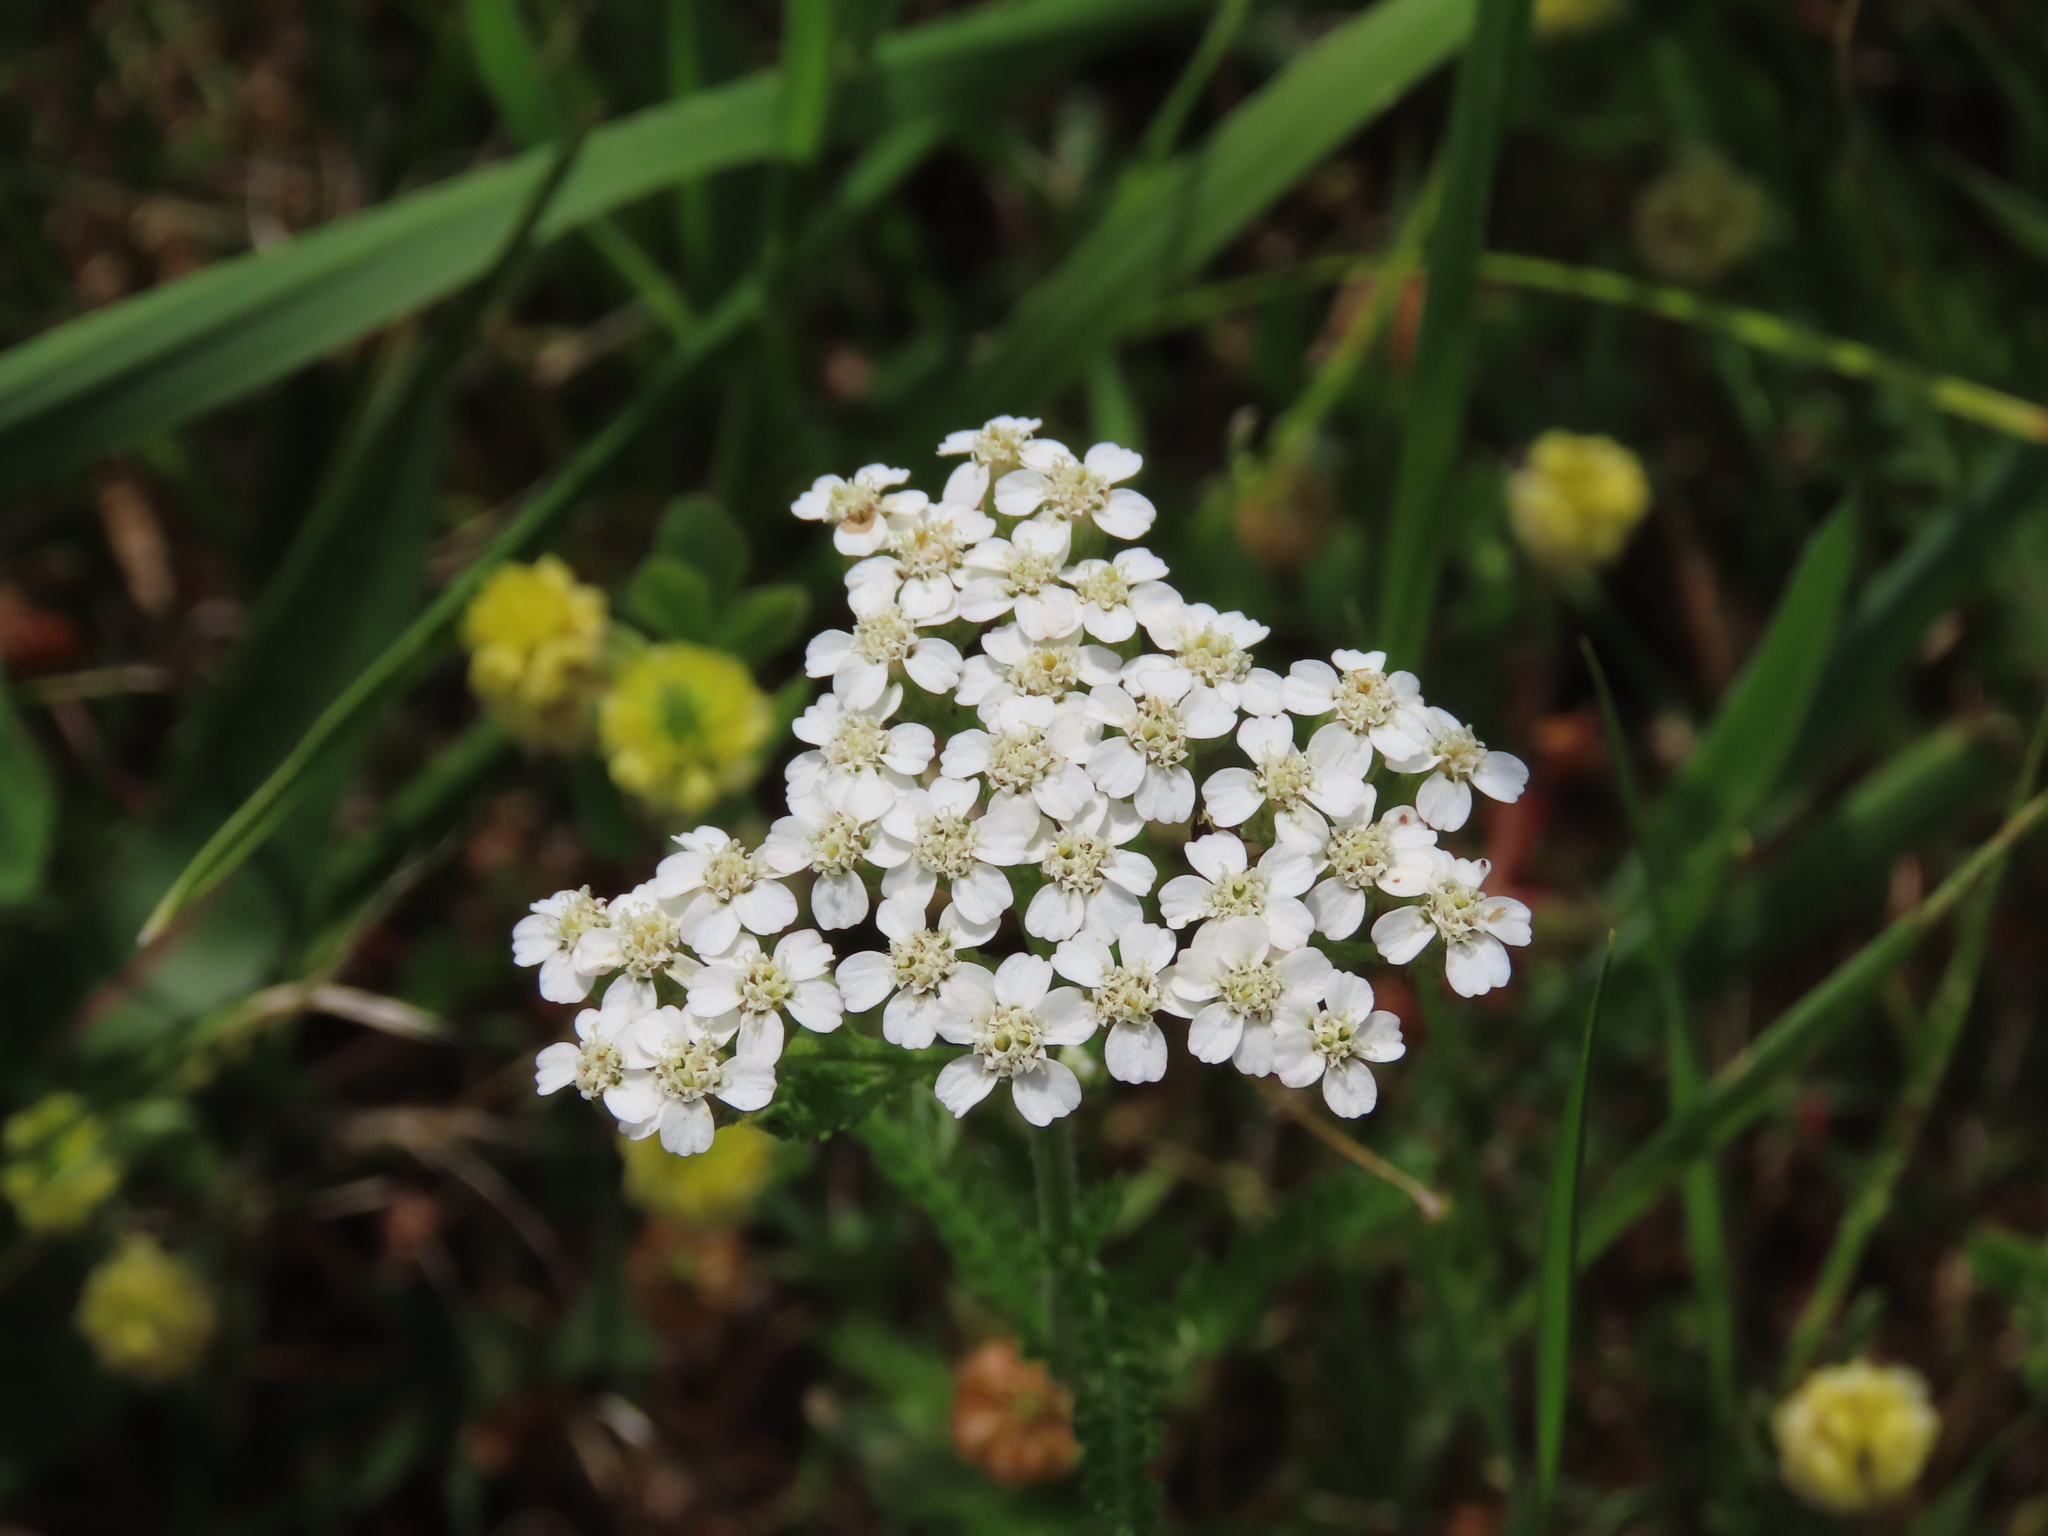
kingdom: Plantae
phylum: Tracheophyta
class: Magnoliopsida
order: Asterales
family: Asteraceae
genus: Achillea
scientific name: Achillea millefolium
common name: Yarrow
